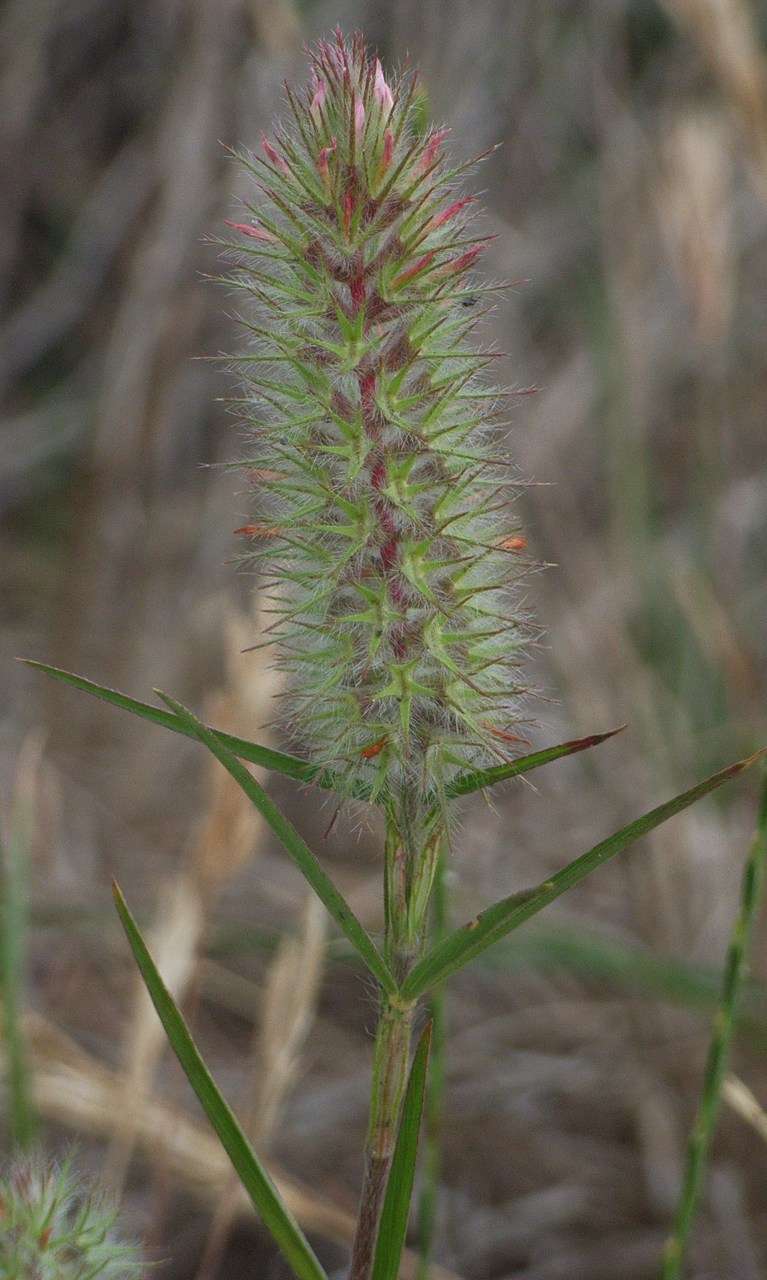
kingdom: Plantae
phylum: Tracheophyta
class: Magnoliopsida
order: Fabales
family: Fabaceae
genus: Trifolium
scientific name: Trifolium angustifolium
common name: Narrow clover
